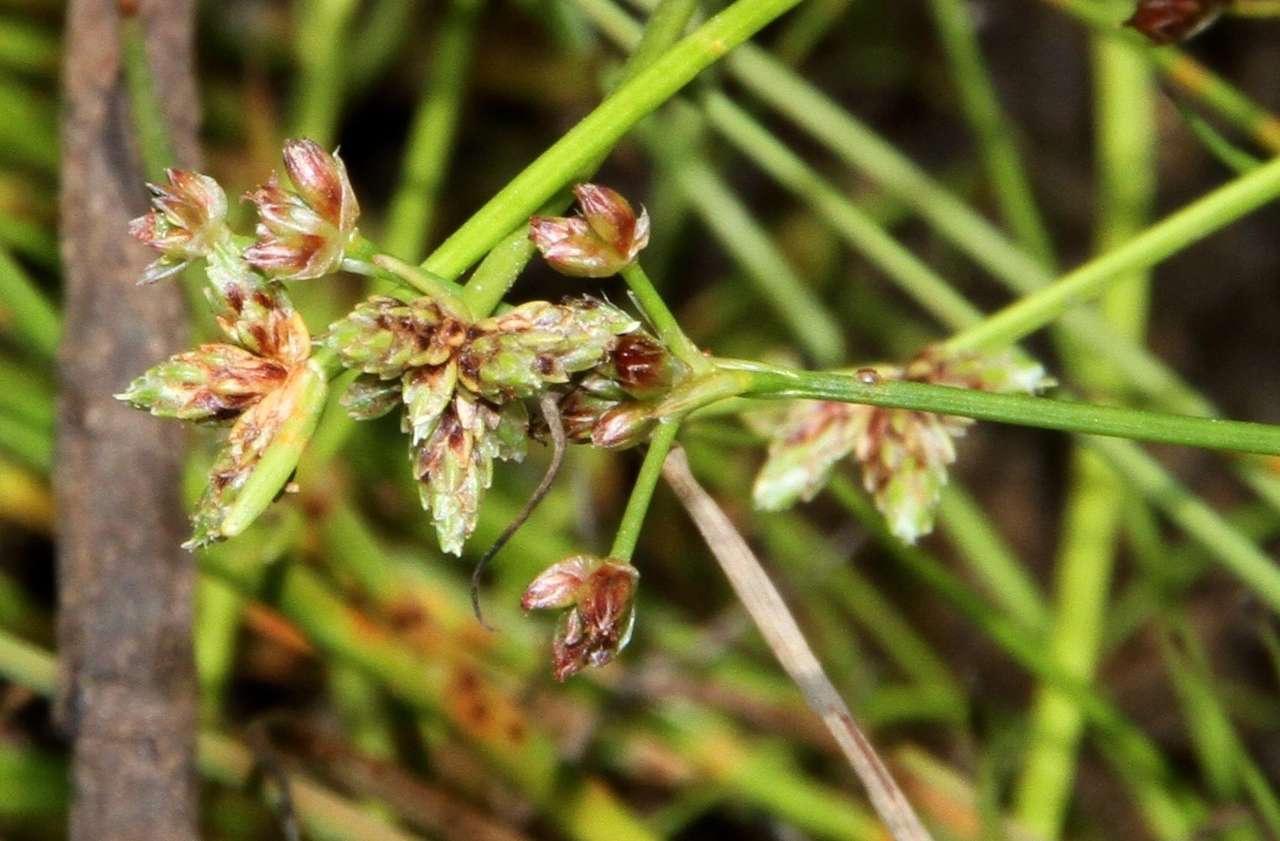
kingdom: Plantae
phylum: Tracheophyta
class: Liliopsida
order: Poales
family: Cyperaceae
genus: Isolepis
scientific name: Isolepis inundata
